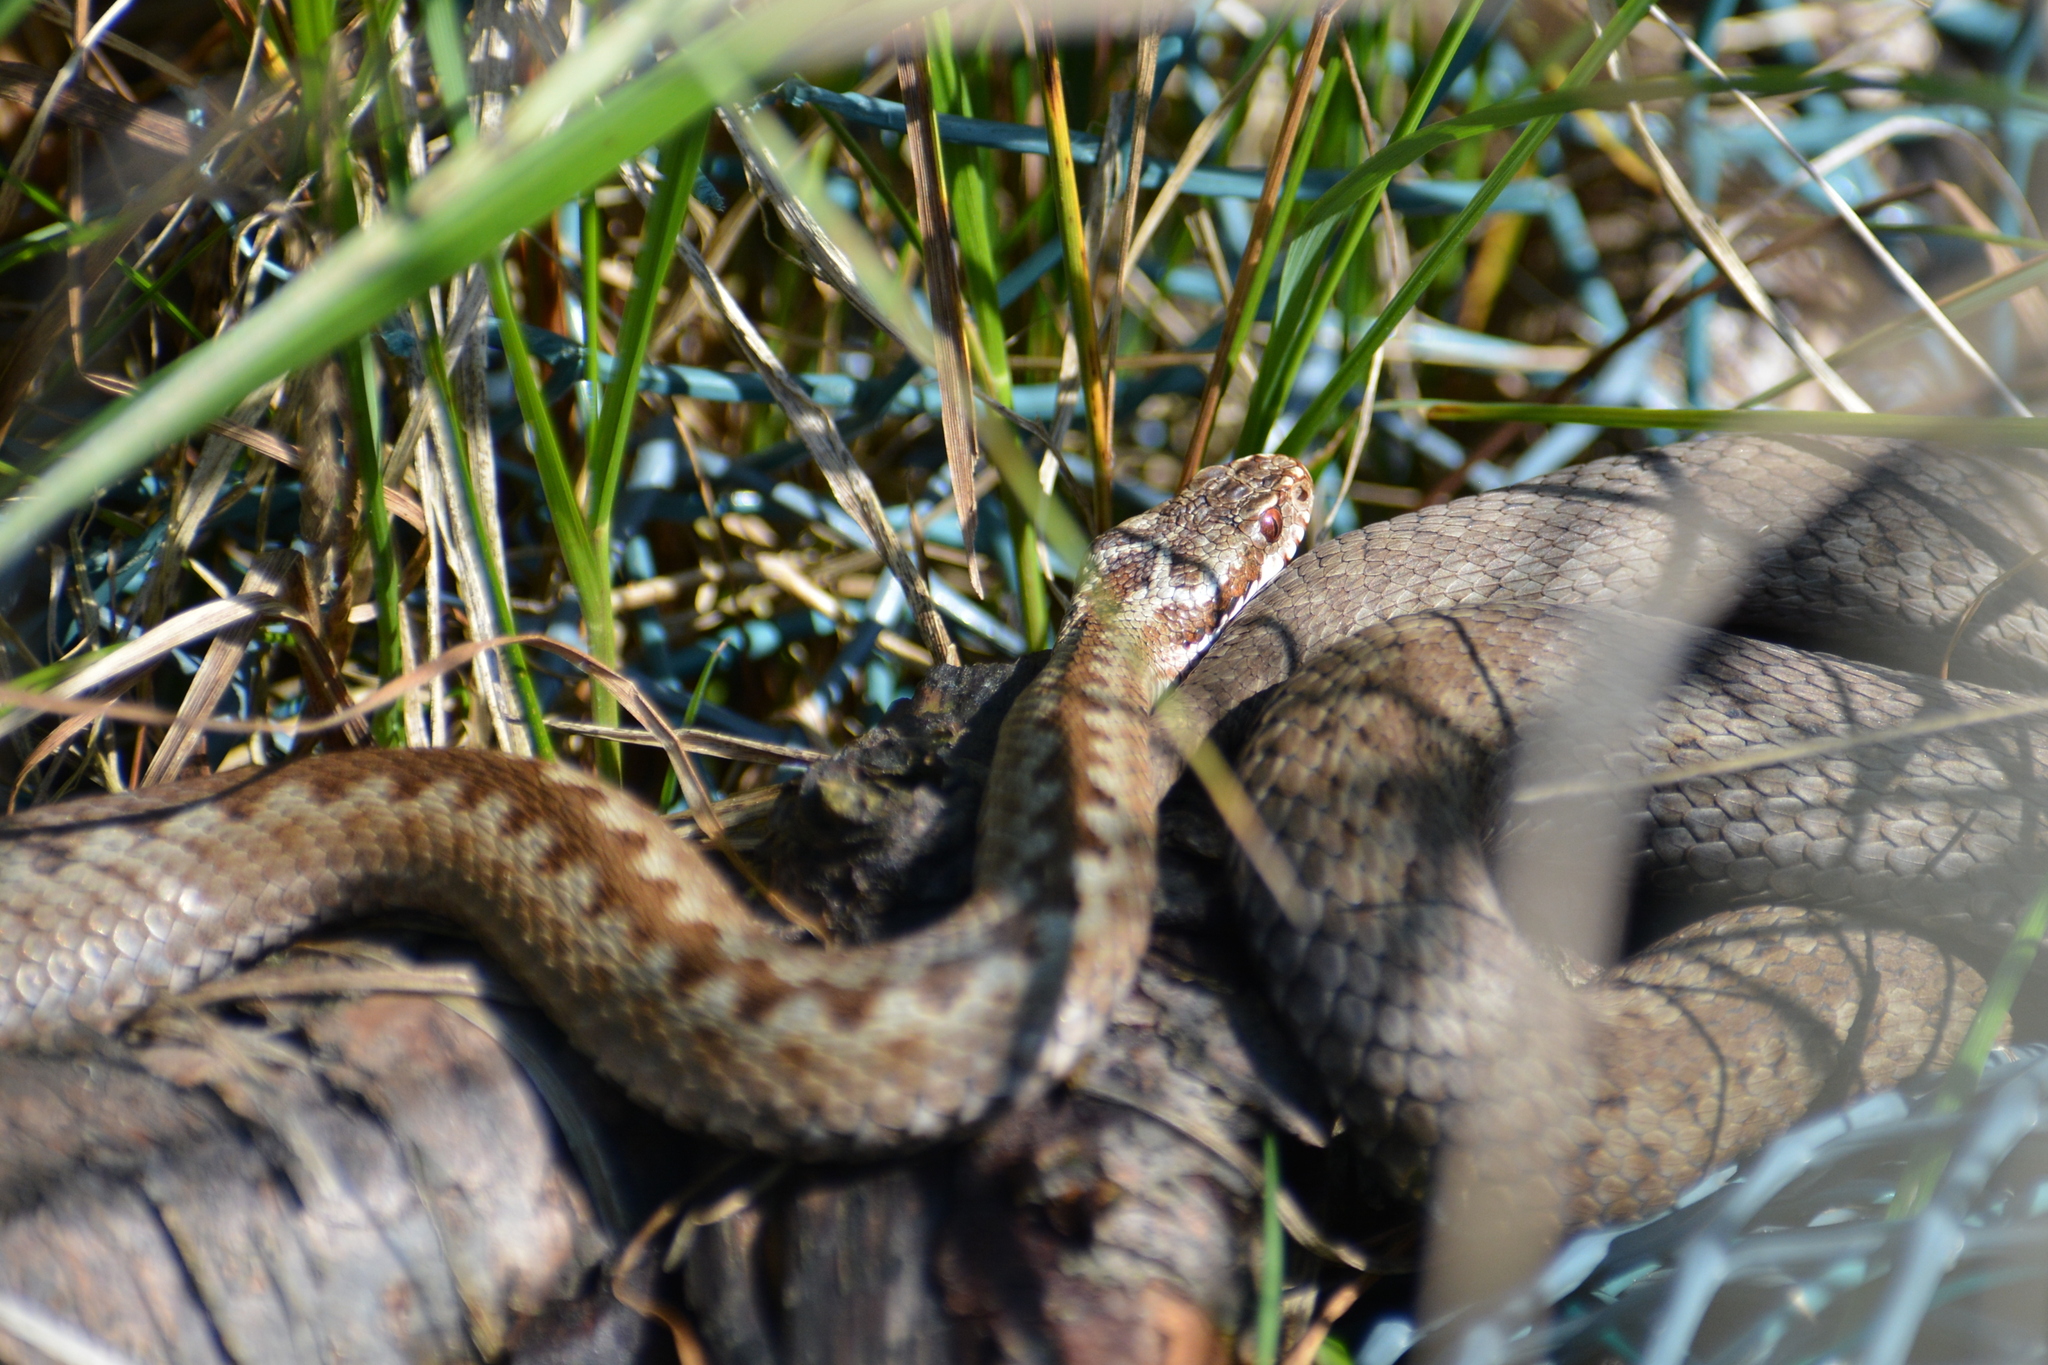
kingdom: Animalia
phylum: Chordata
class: Squamata
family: Viperidae
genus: Vipera
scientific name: Vipera berus
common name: Adder
